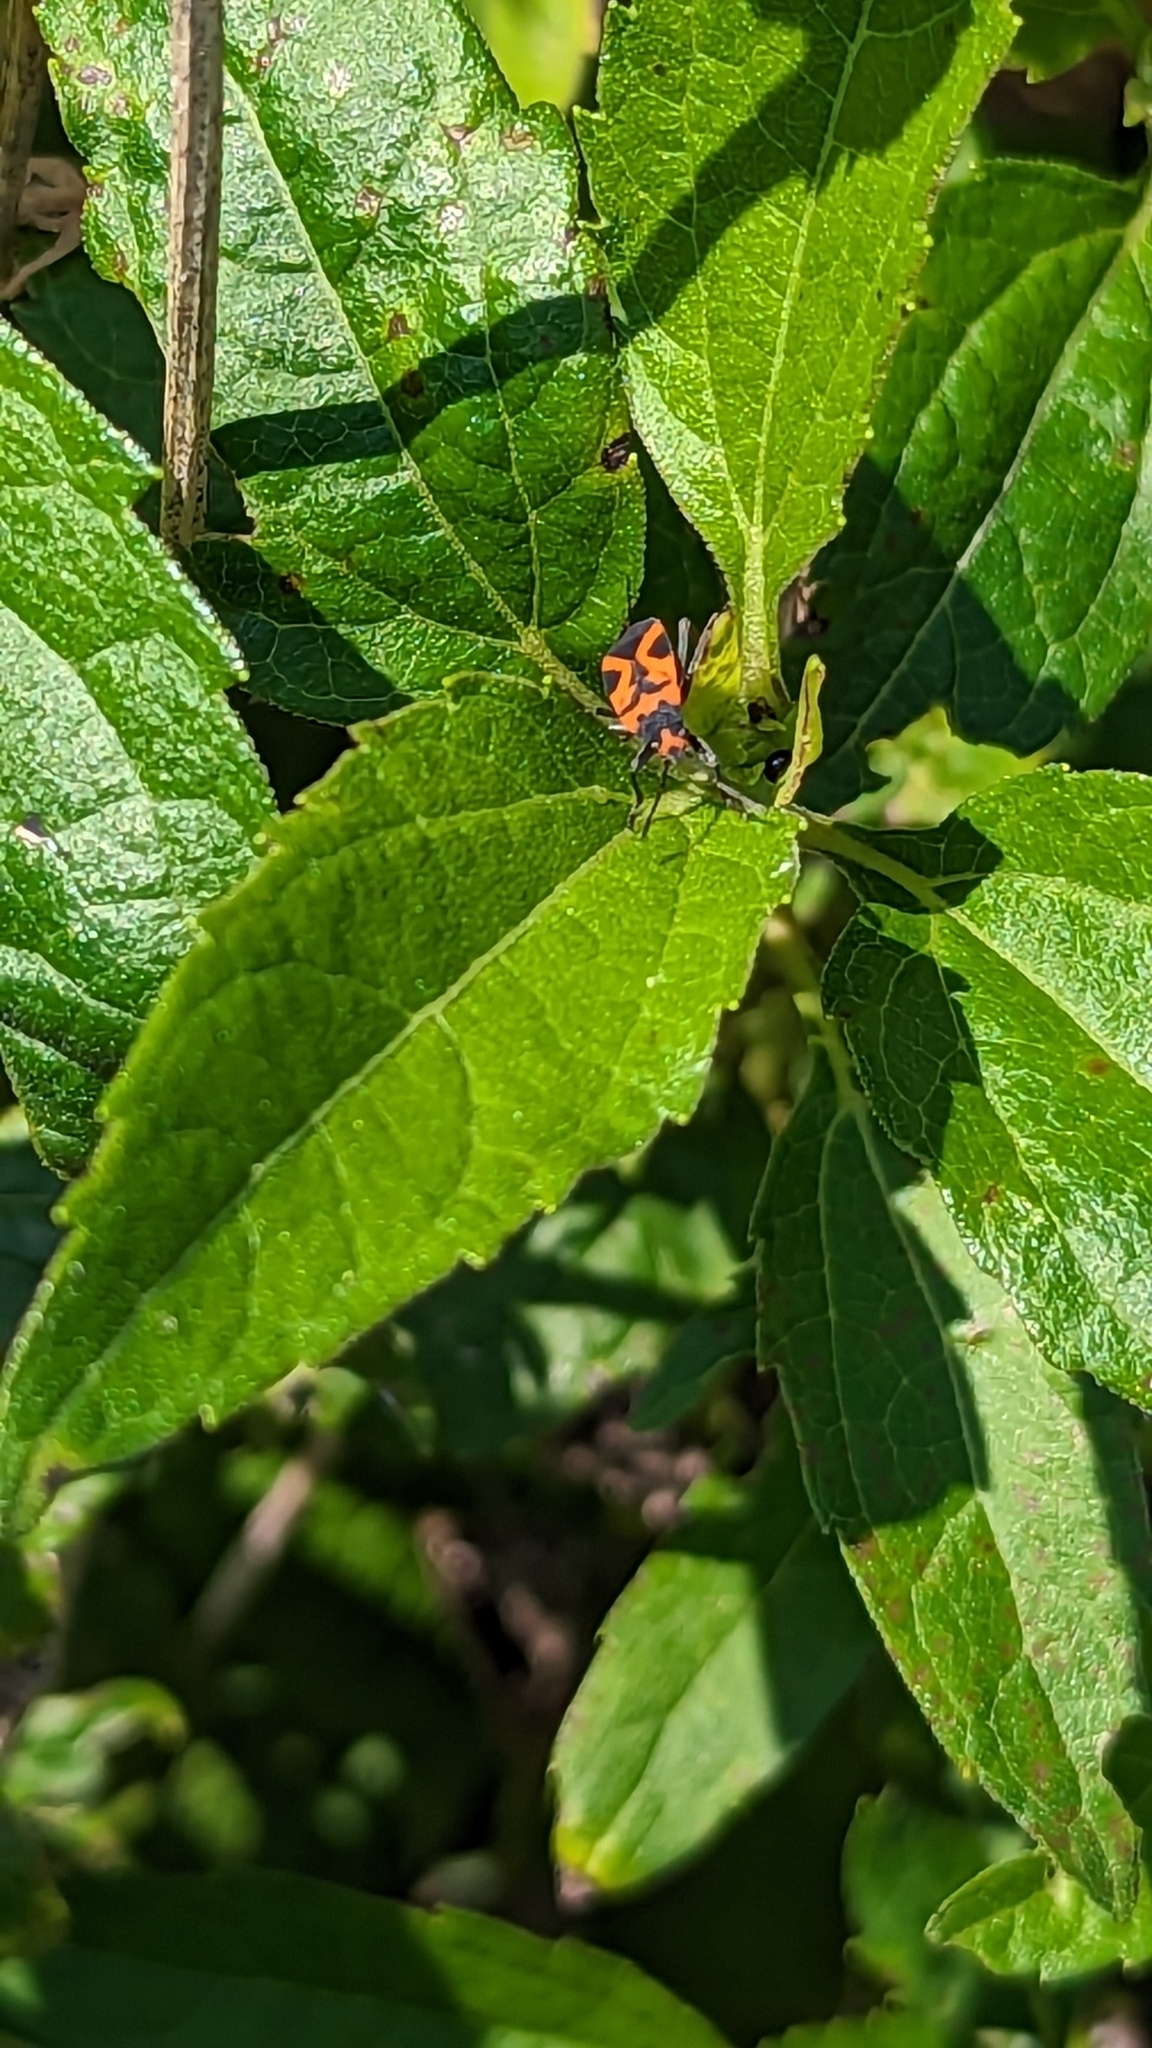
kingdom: Animalia
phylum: Arthropoda
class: Insecta
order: Hemiptera
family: Lygaeidae
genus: Lygaeus
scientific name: Lygaeus turcicus
